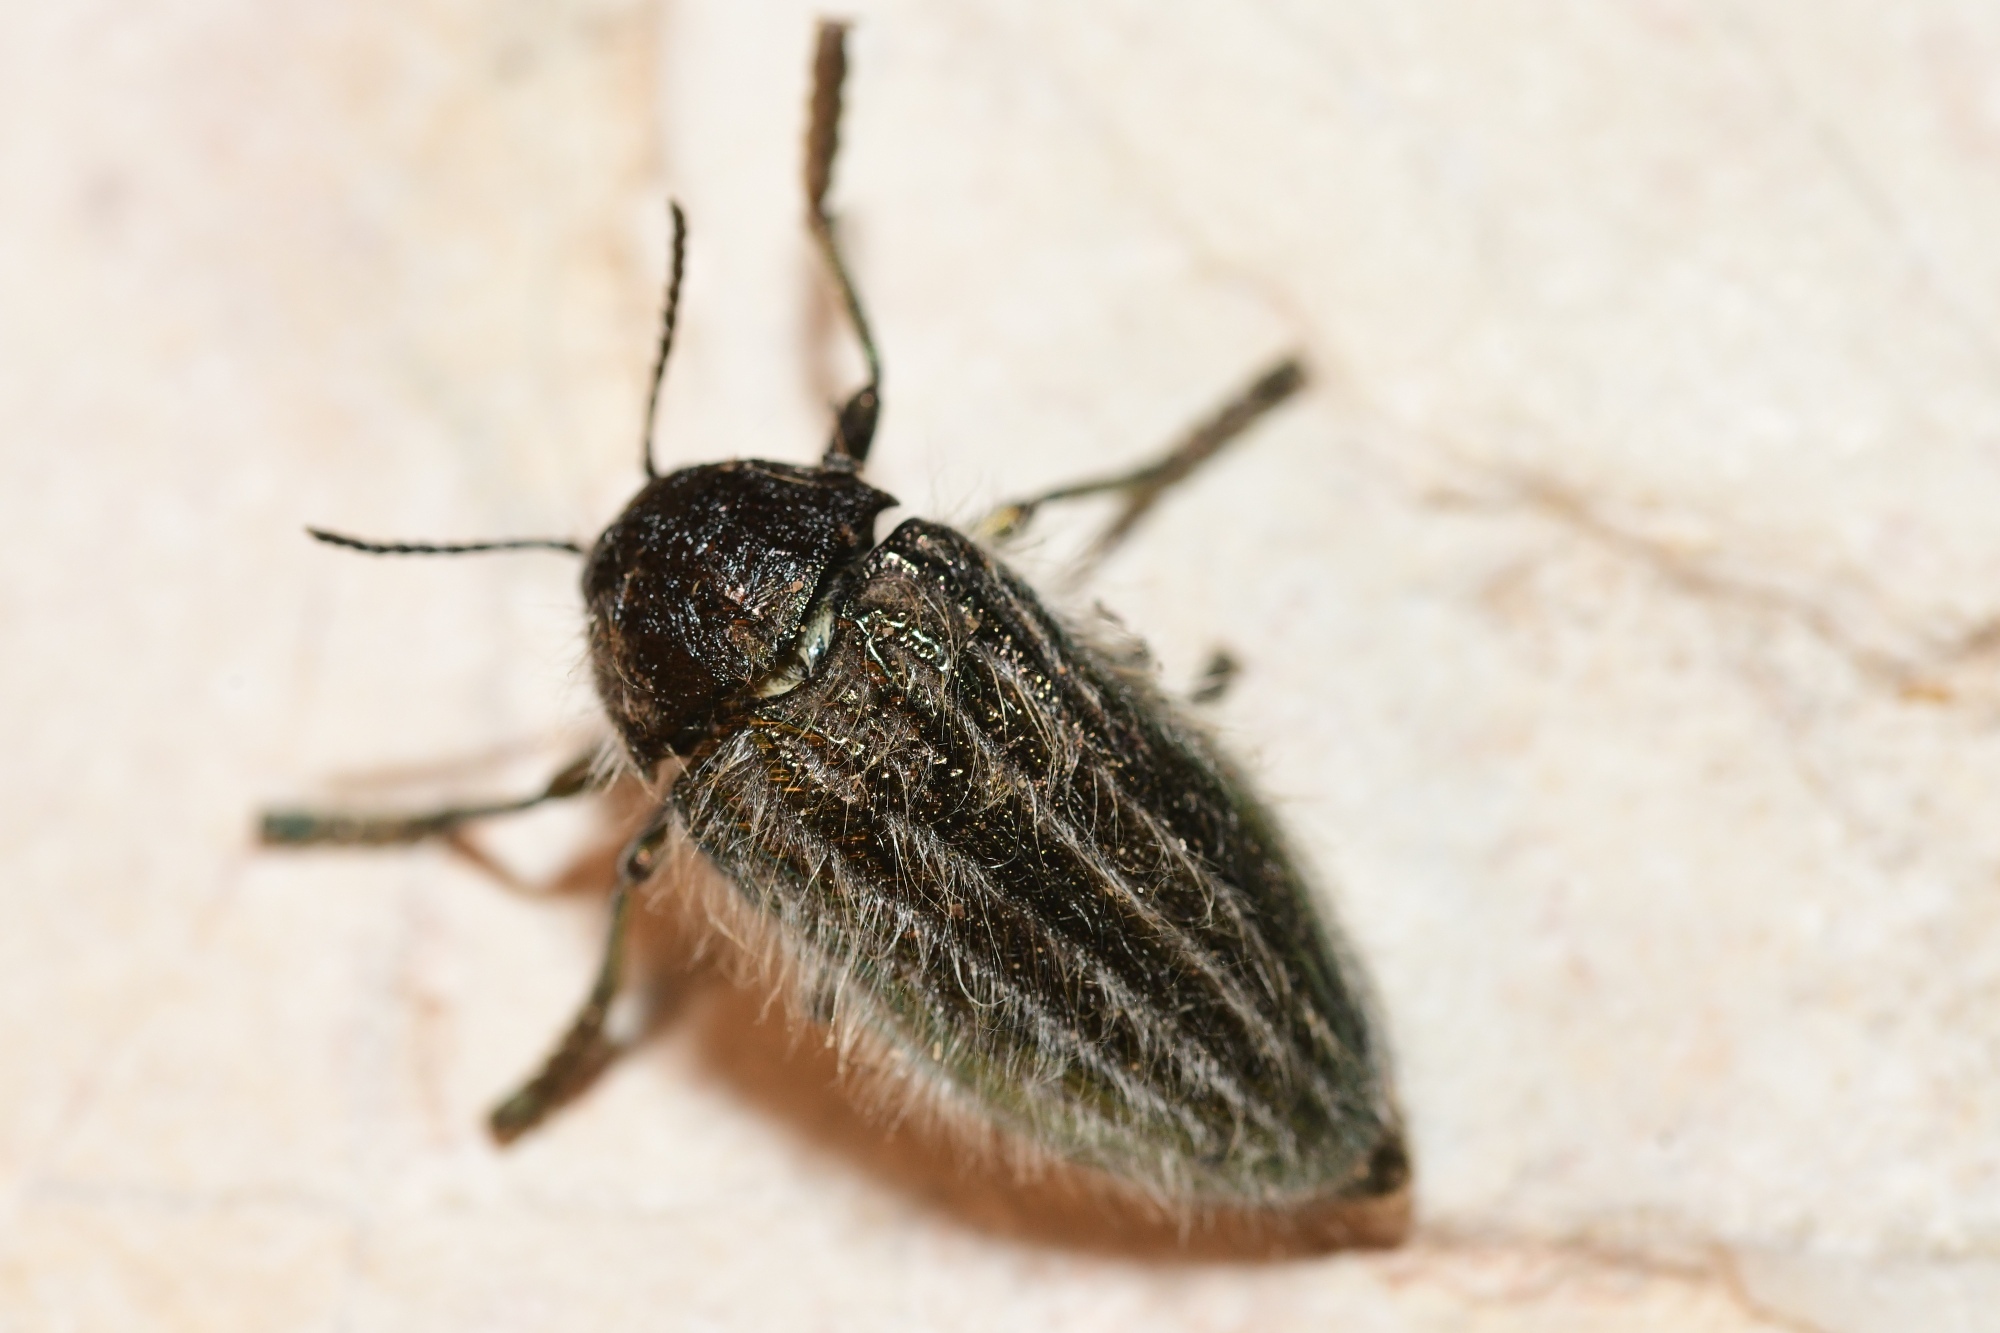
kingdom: Animalia
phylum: Arthropoda
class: Insecta
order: Coleoptera
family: Buprestidae
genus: Julodis
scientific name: Julodis pubescens
